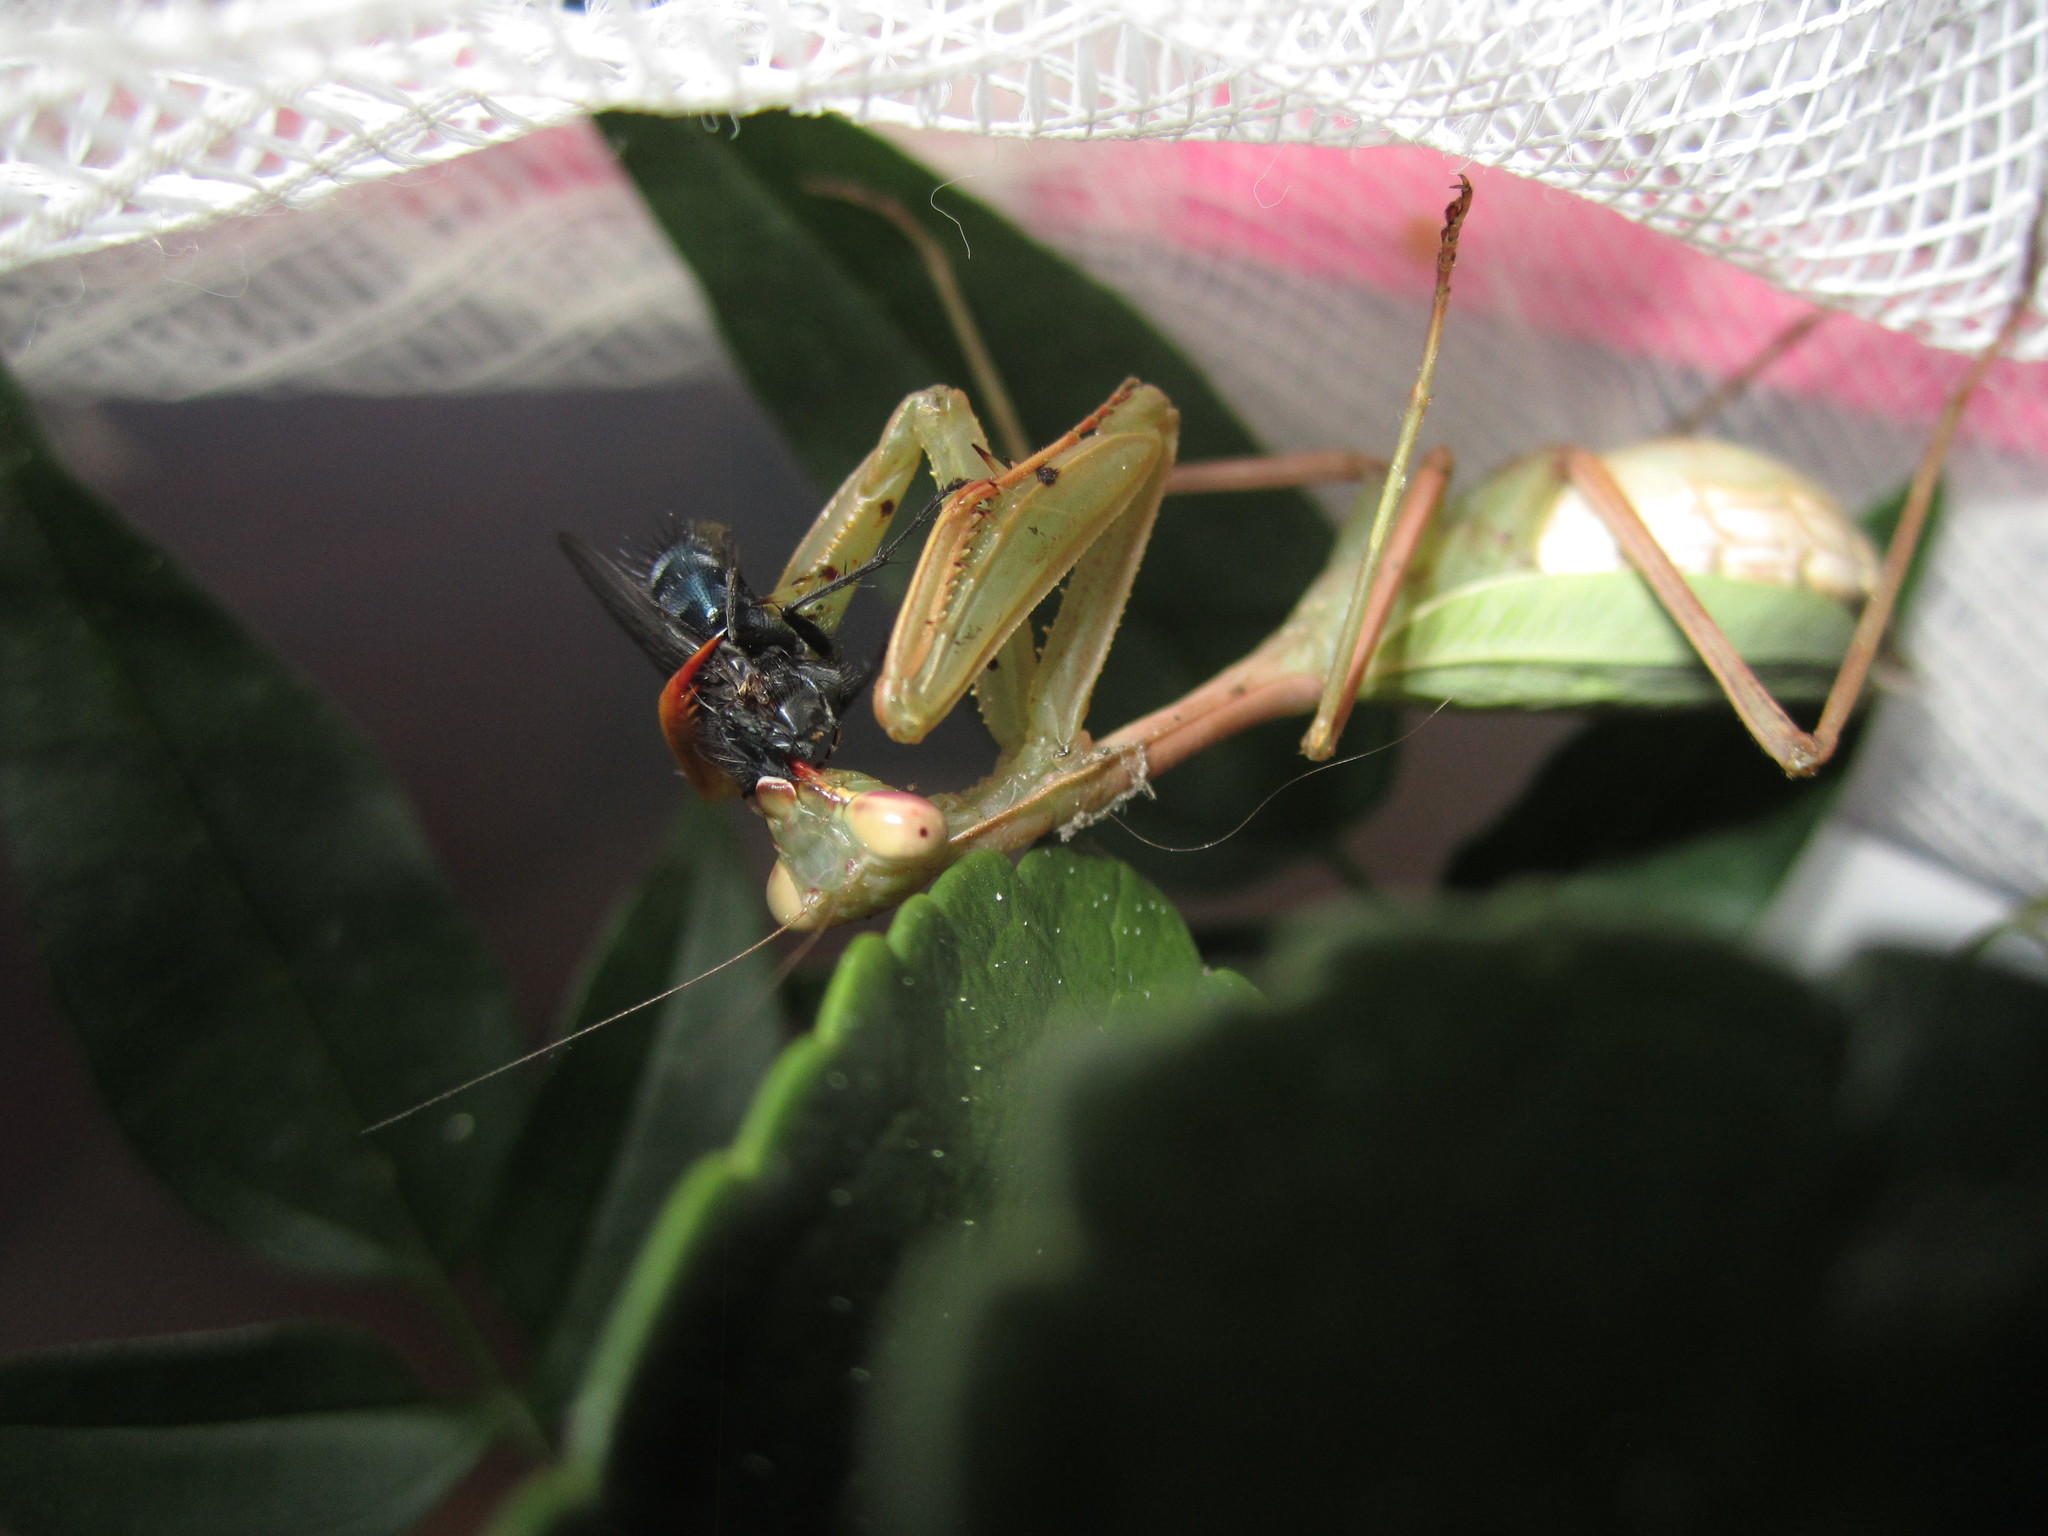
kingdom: Animalia
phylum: Arthropoda
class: Insecta
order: Diptera
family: Calliphoridae
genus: Calliphora
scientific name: Calliphora vicina
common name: Common blow flie
